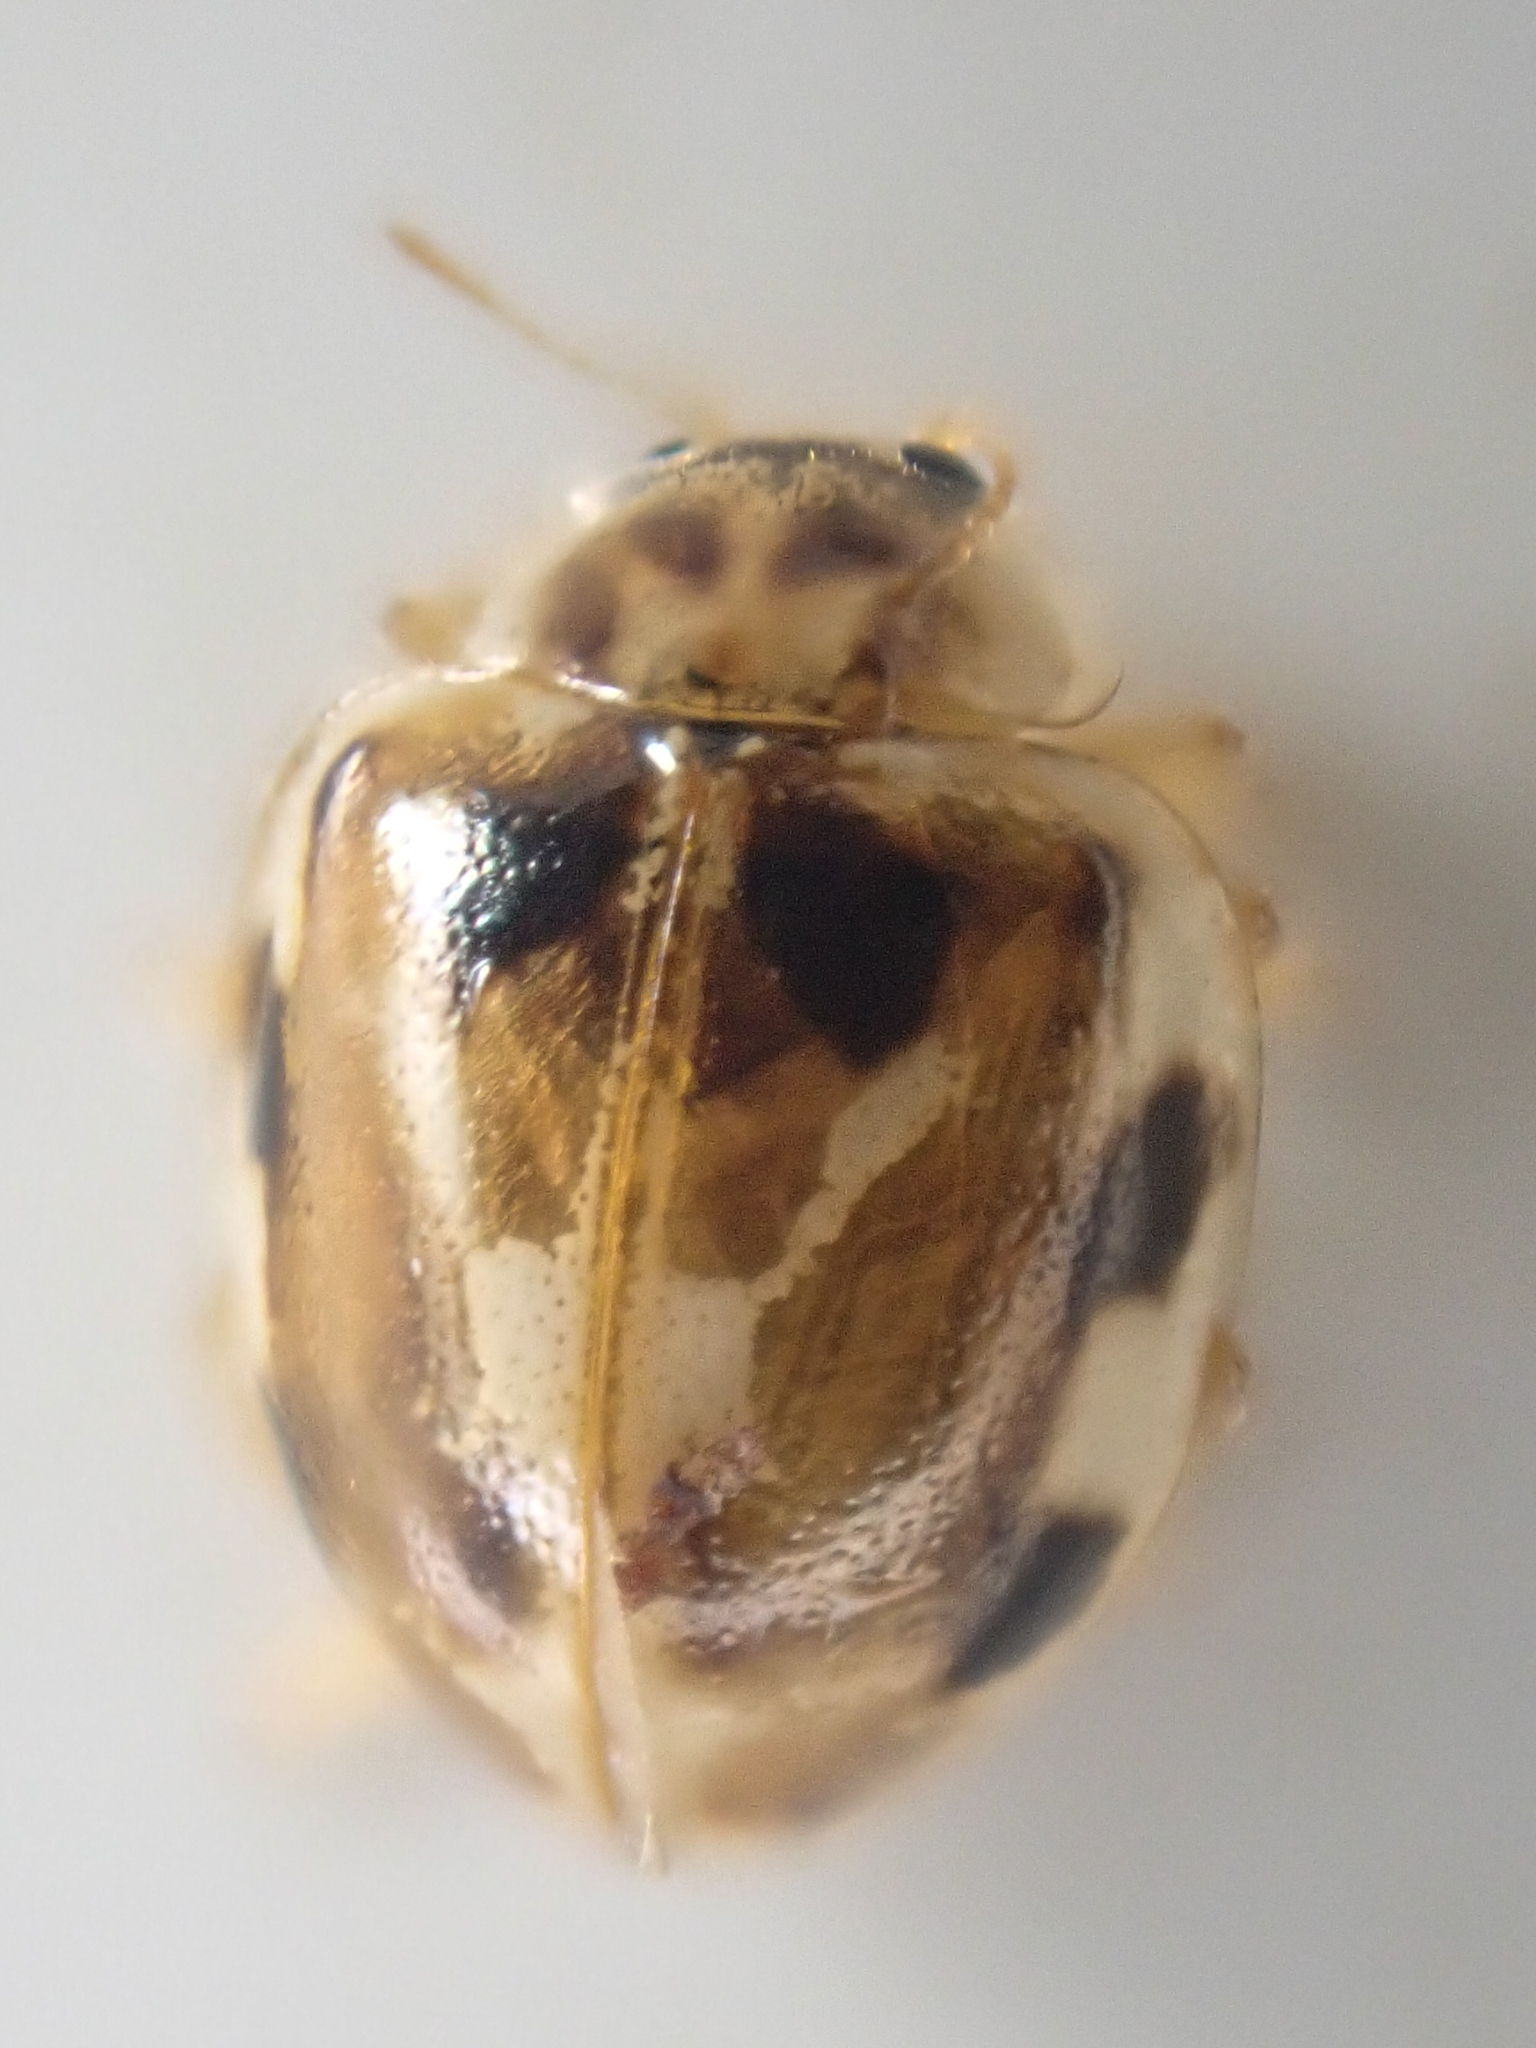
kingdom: Animalia
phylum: Arthropoda
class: Insecta
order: Coleoptera
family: Coccinellidae
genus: Psyllobora
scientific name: Psyllobora vigintimaculata
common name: Ladybird beetle
